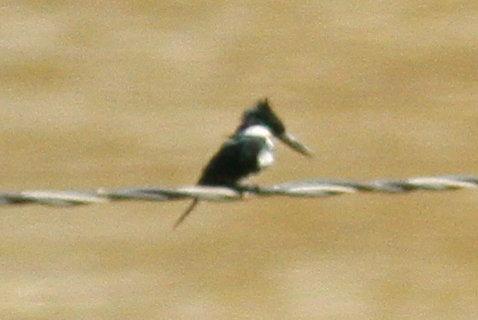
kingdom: Animalia
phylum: Chordata
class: Aves
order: Coraciiformes
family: Alcedinidae
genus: Chloroceryle
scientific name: Chloroceryle americana
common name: Green kingfisher
